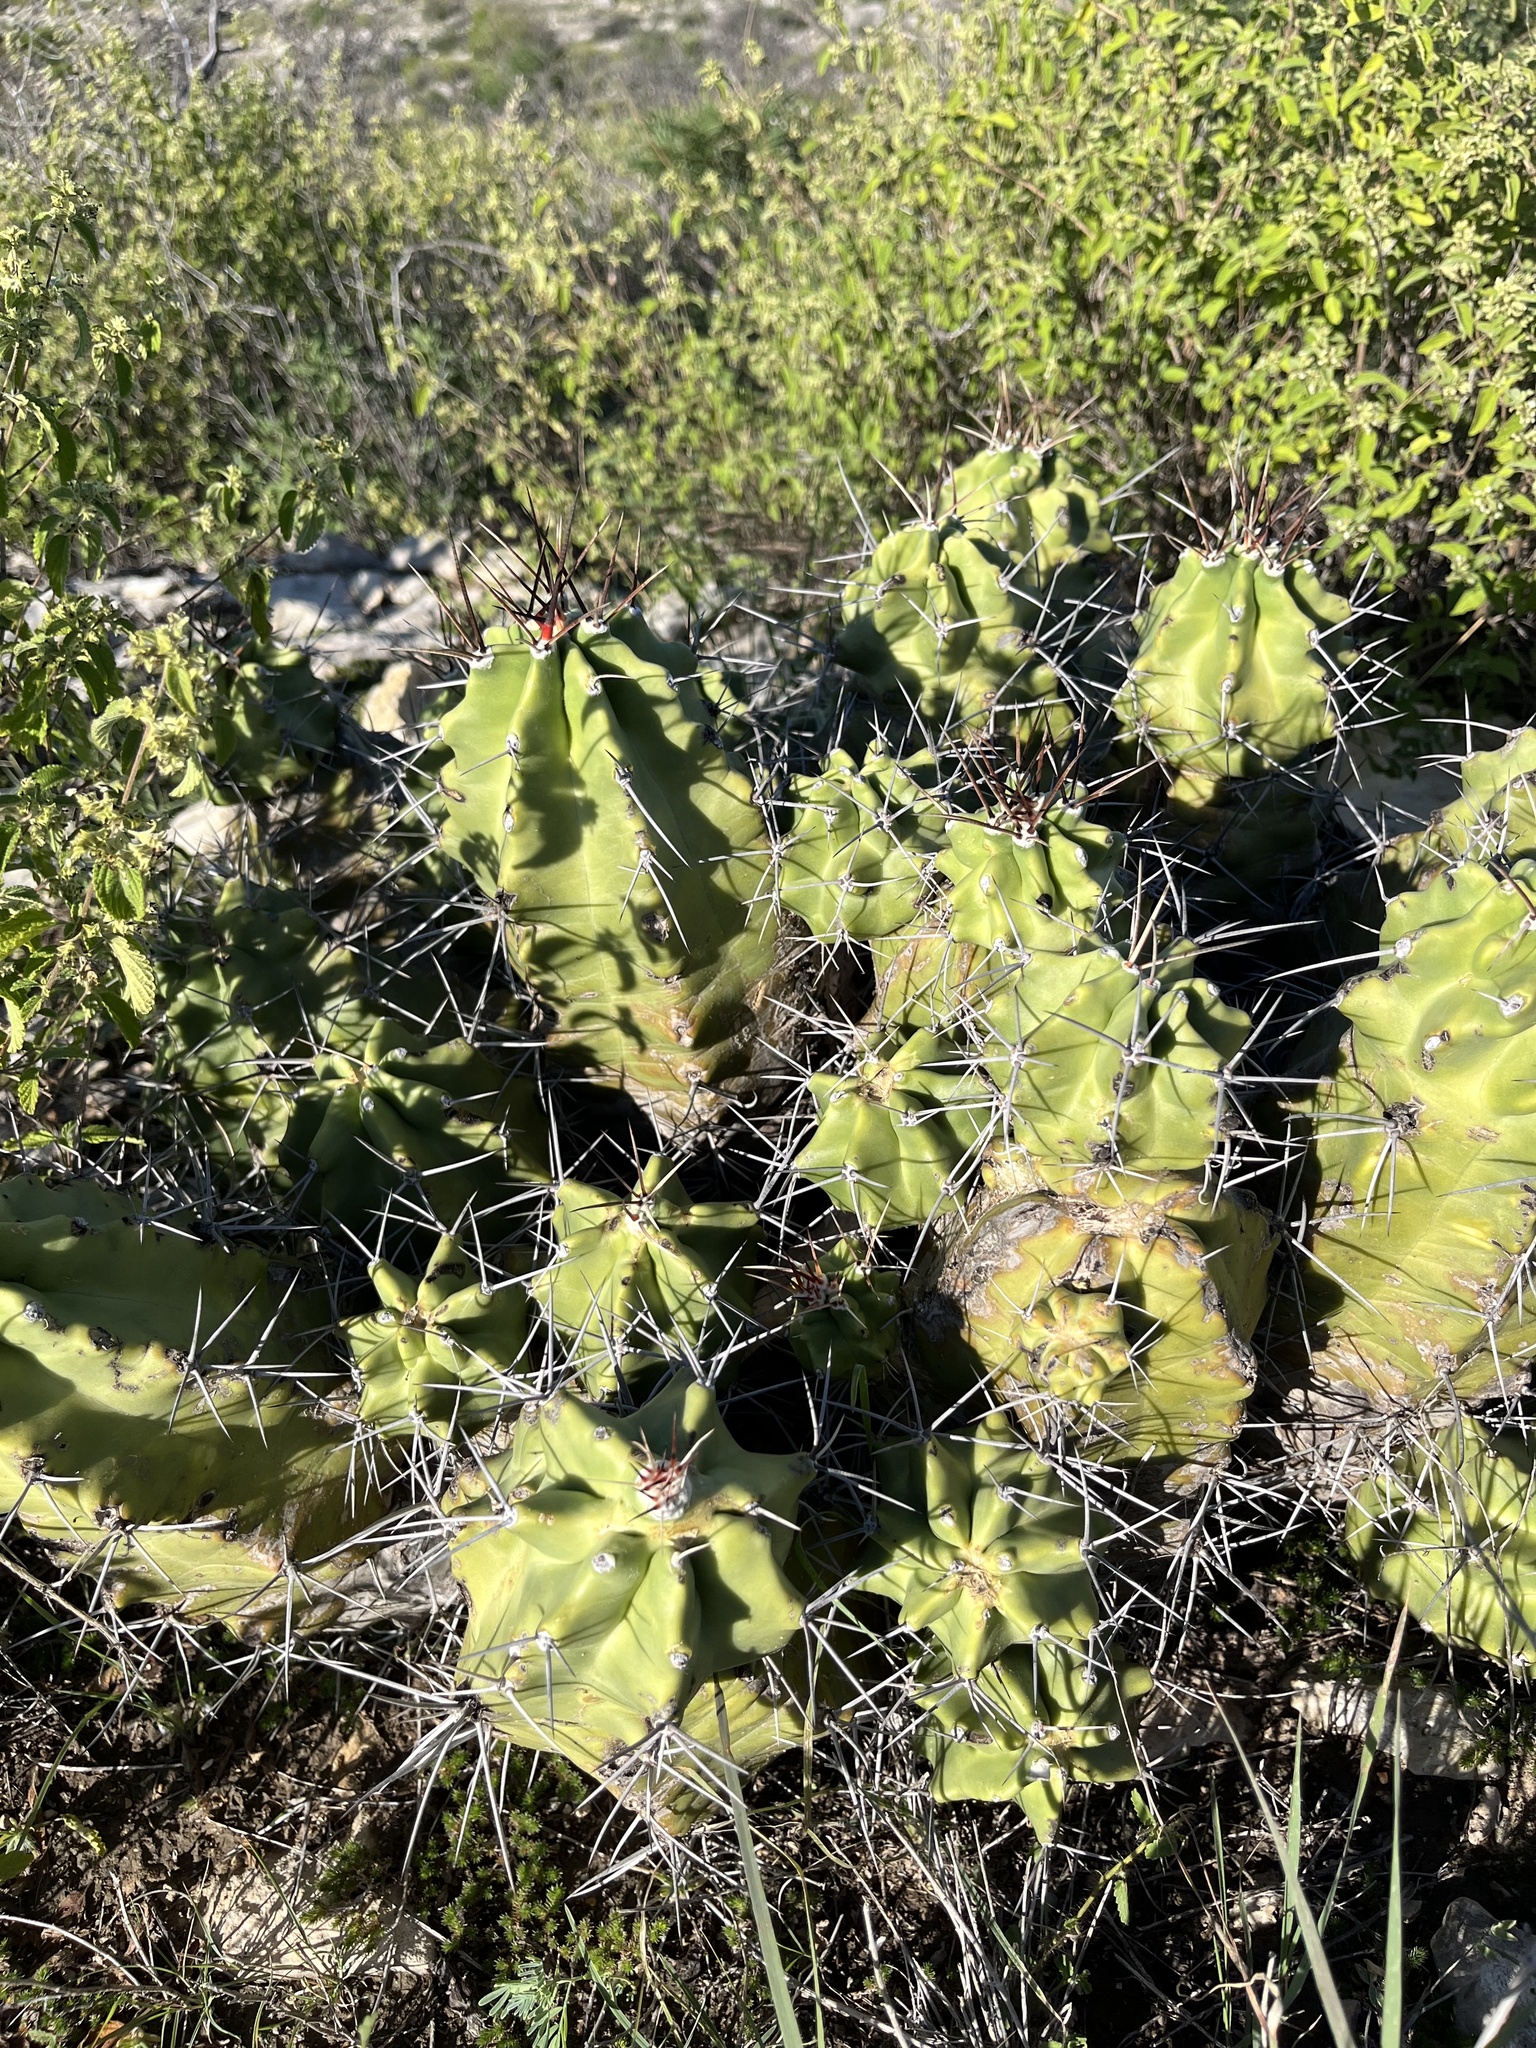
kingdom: Plantae
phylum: Tracheophyta
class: Magnoliopsida
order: Caryophyllales
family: Cactaceae
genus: Echinocereus
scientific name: Echinocereus coccineus
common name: Scarlet hedgehog cactus
